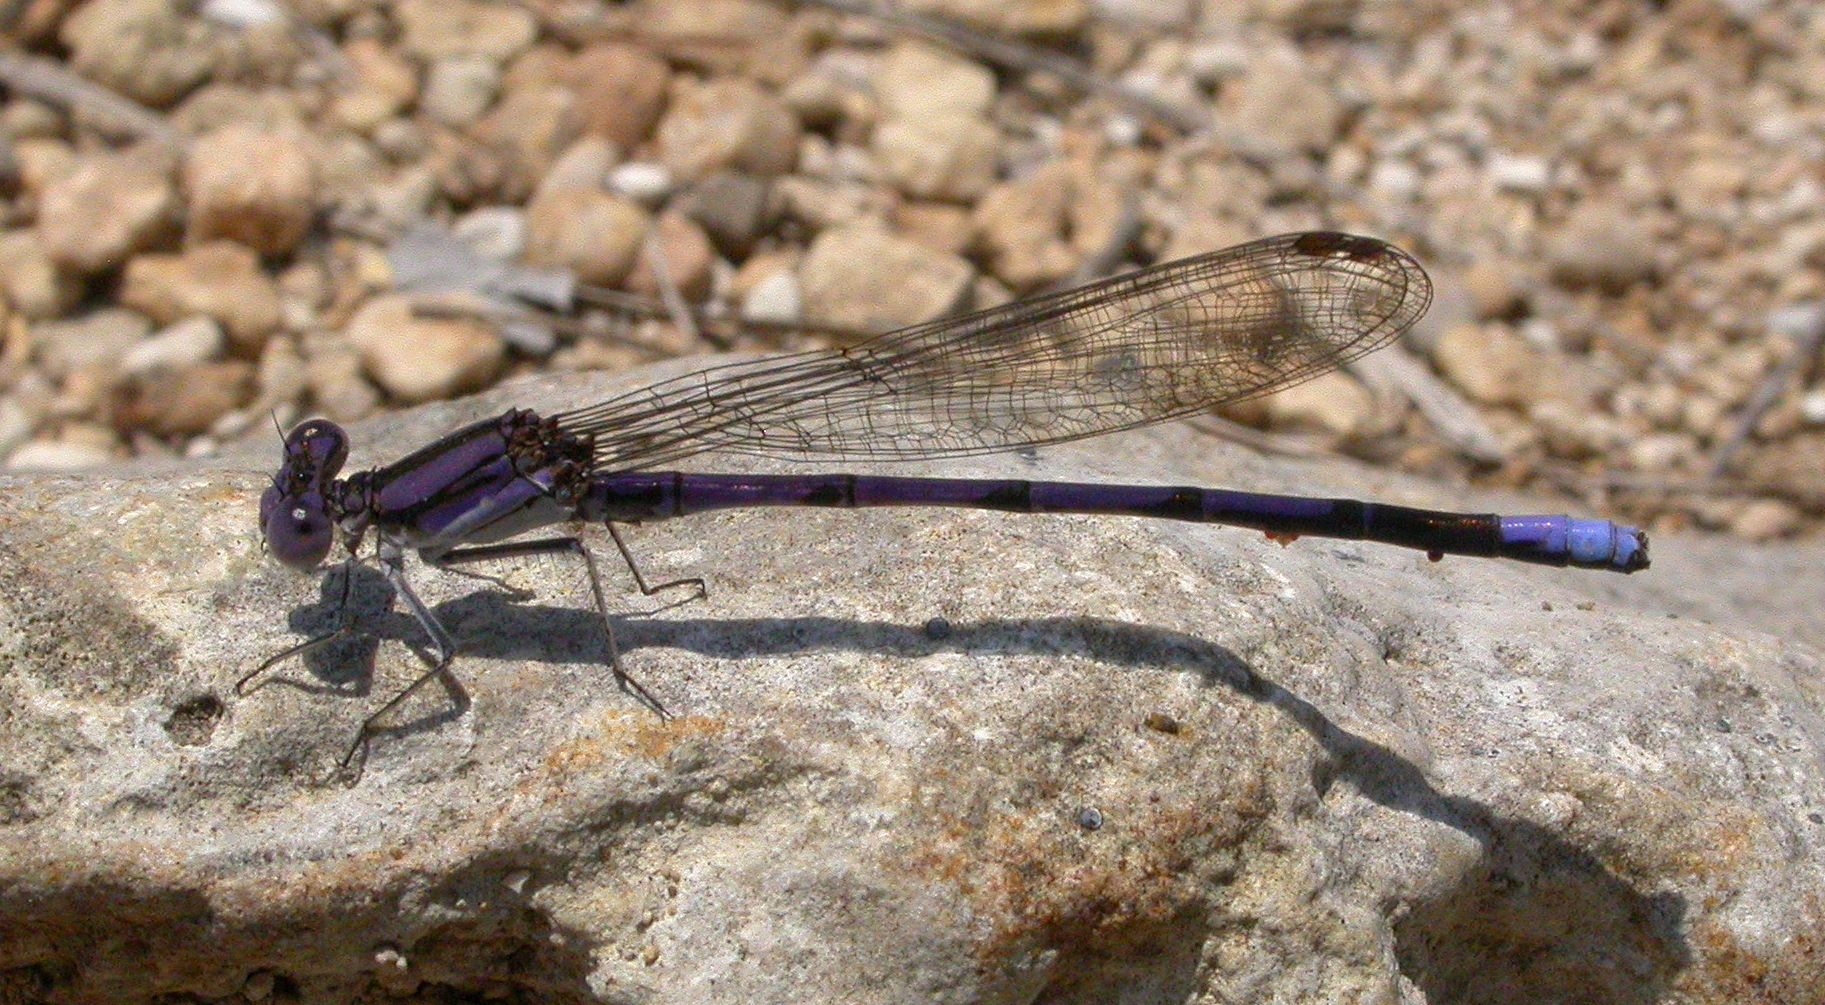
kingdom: Animalia
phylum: Arthropoda
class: Insecta
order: Odonata
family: Coenagrionidae
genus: Argia
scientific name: Argia fumipennis
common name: Variable dancer
